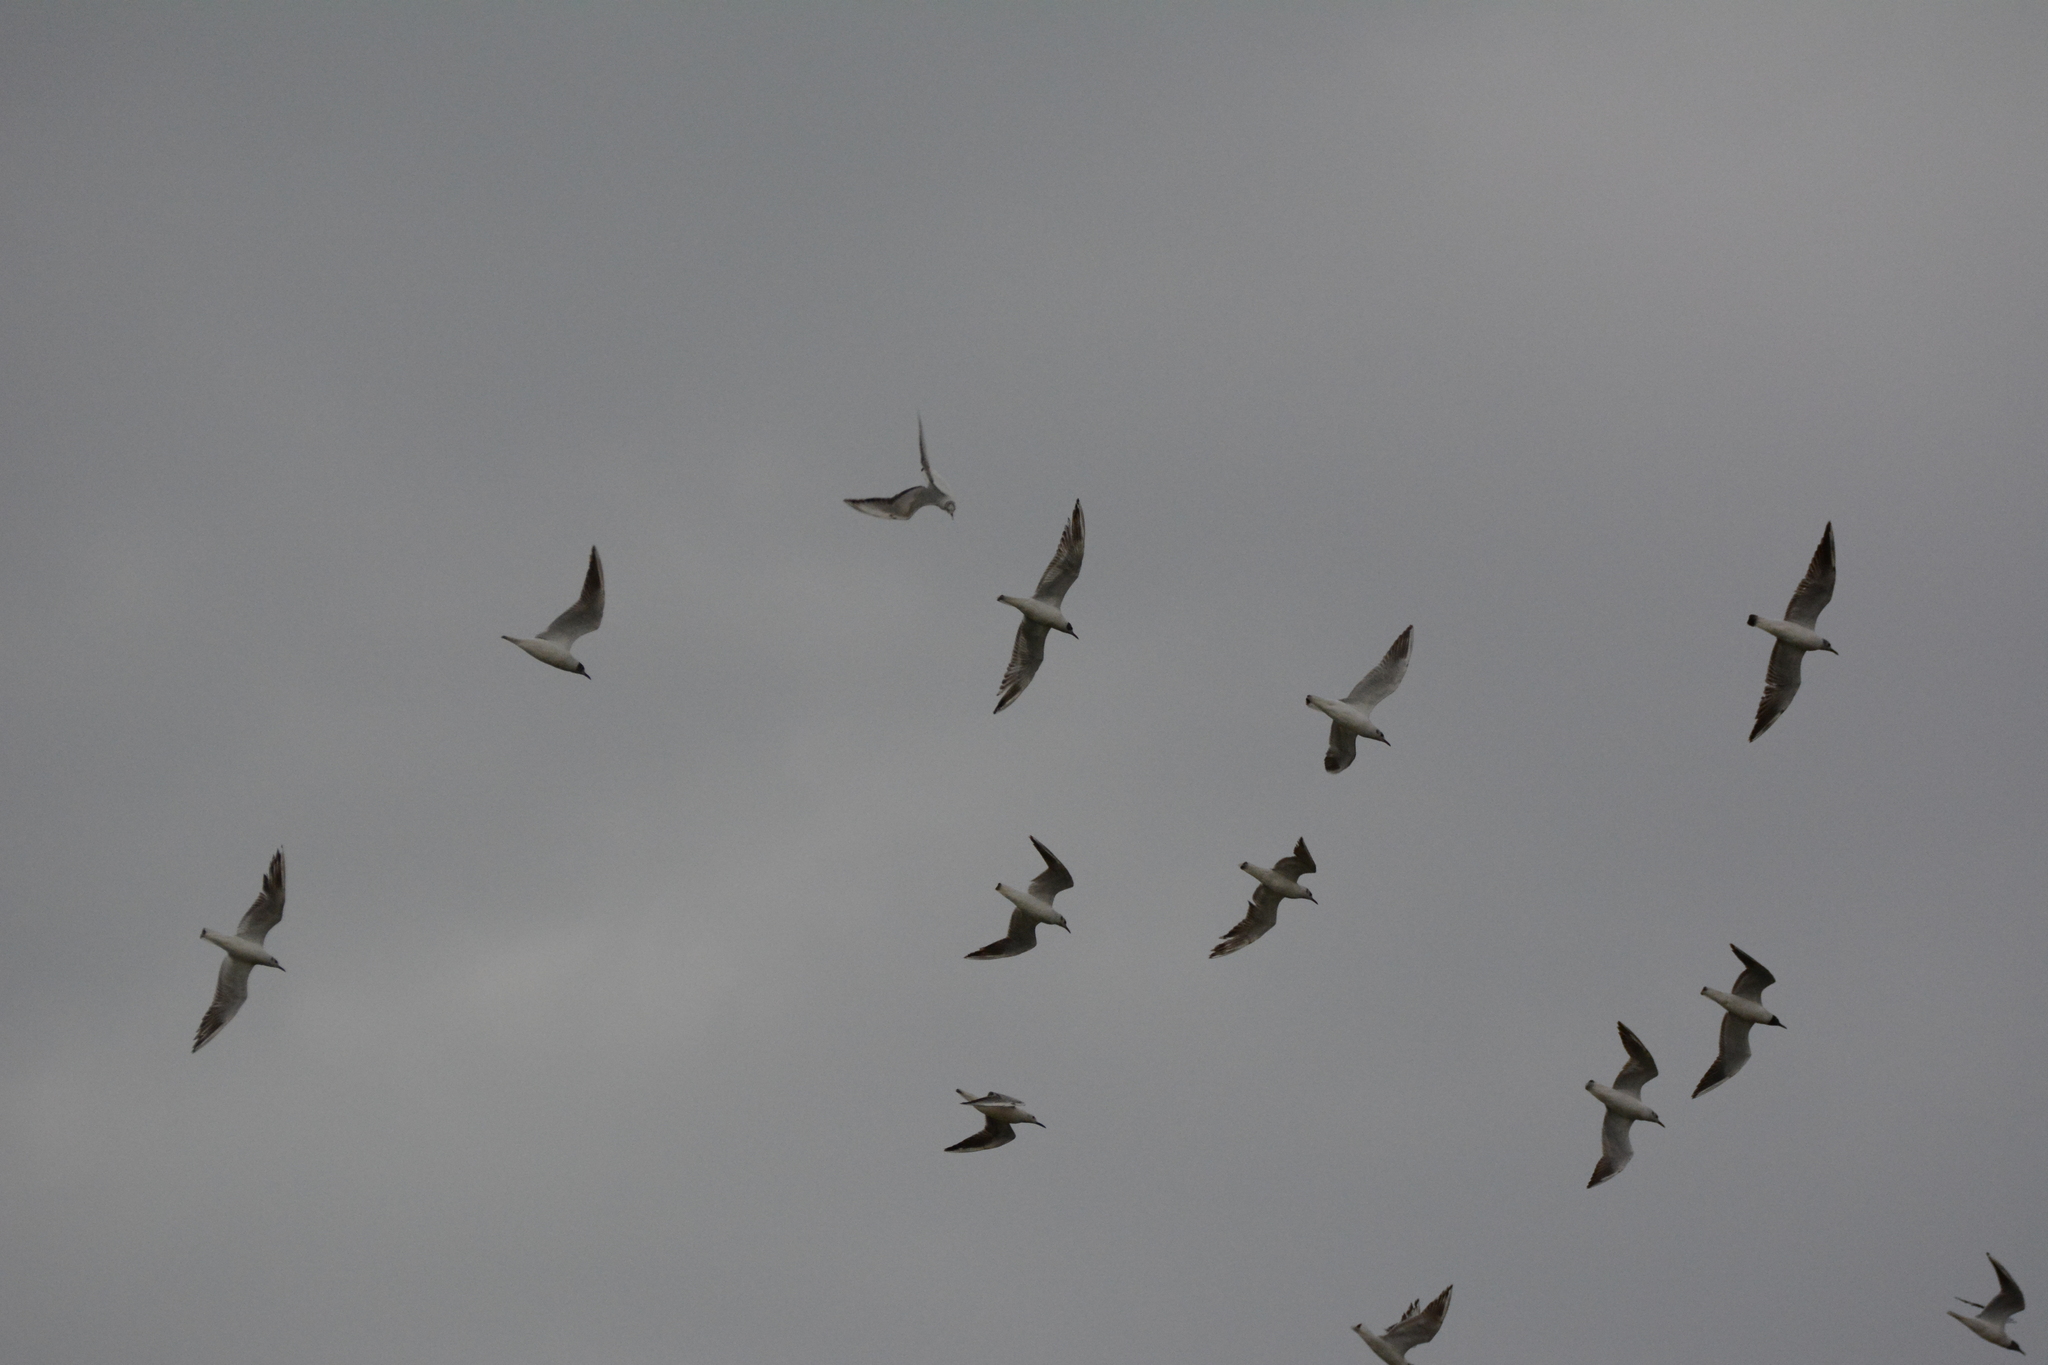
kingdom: Animalia
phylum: Chordata
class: Aves
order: Charadriiformes
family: Laridae
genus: Chroicocephalus
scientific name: Chroicocephalus ridibundus
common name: Black-headed gull
